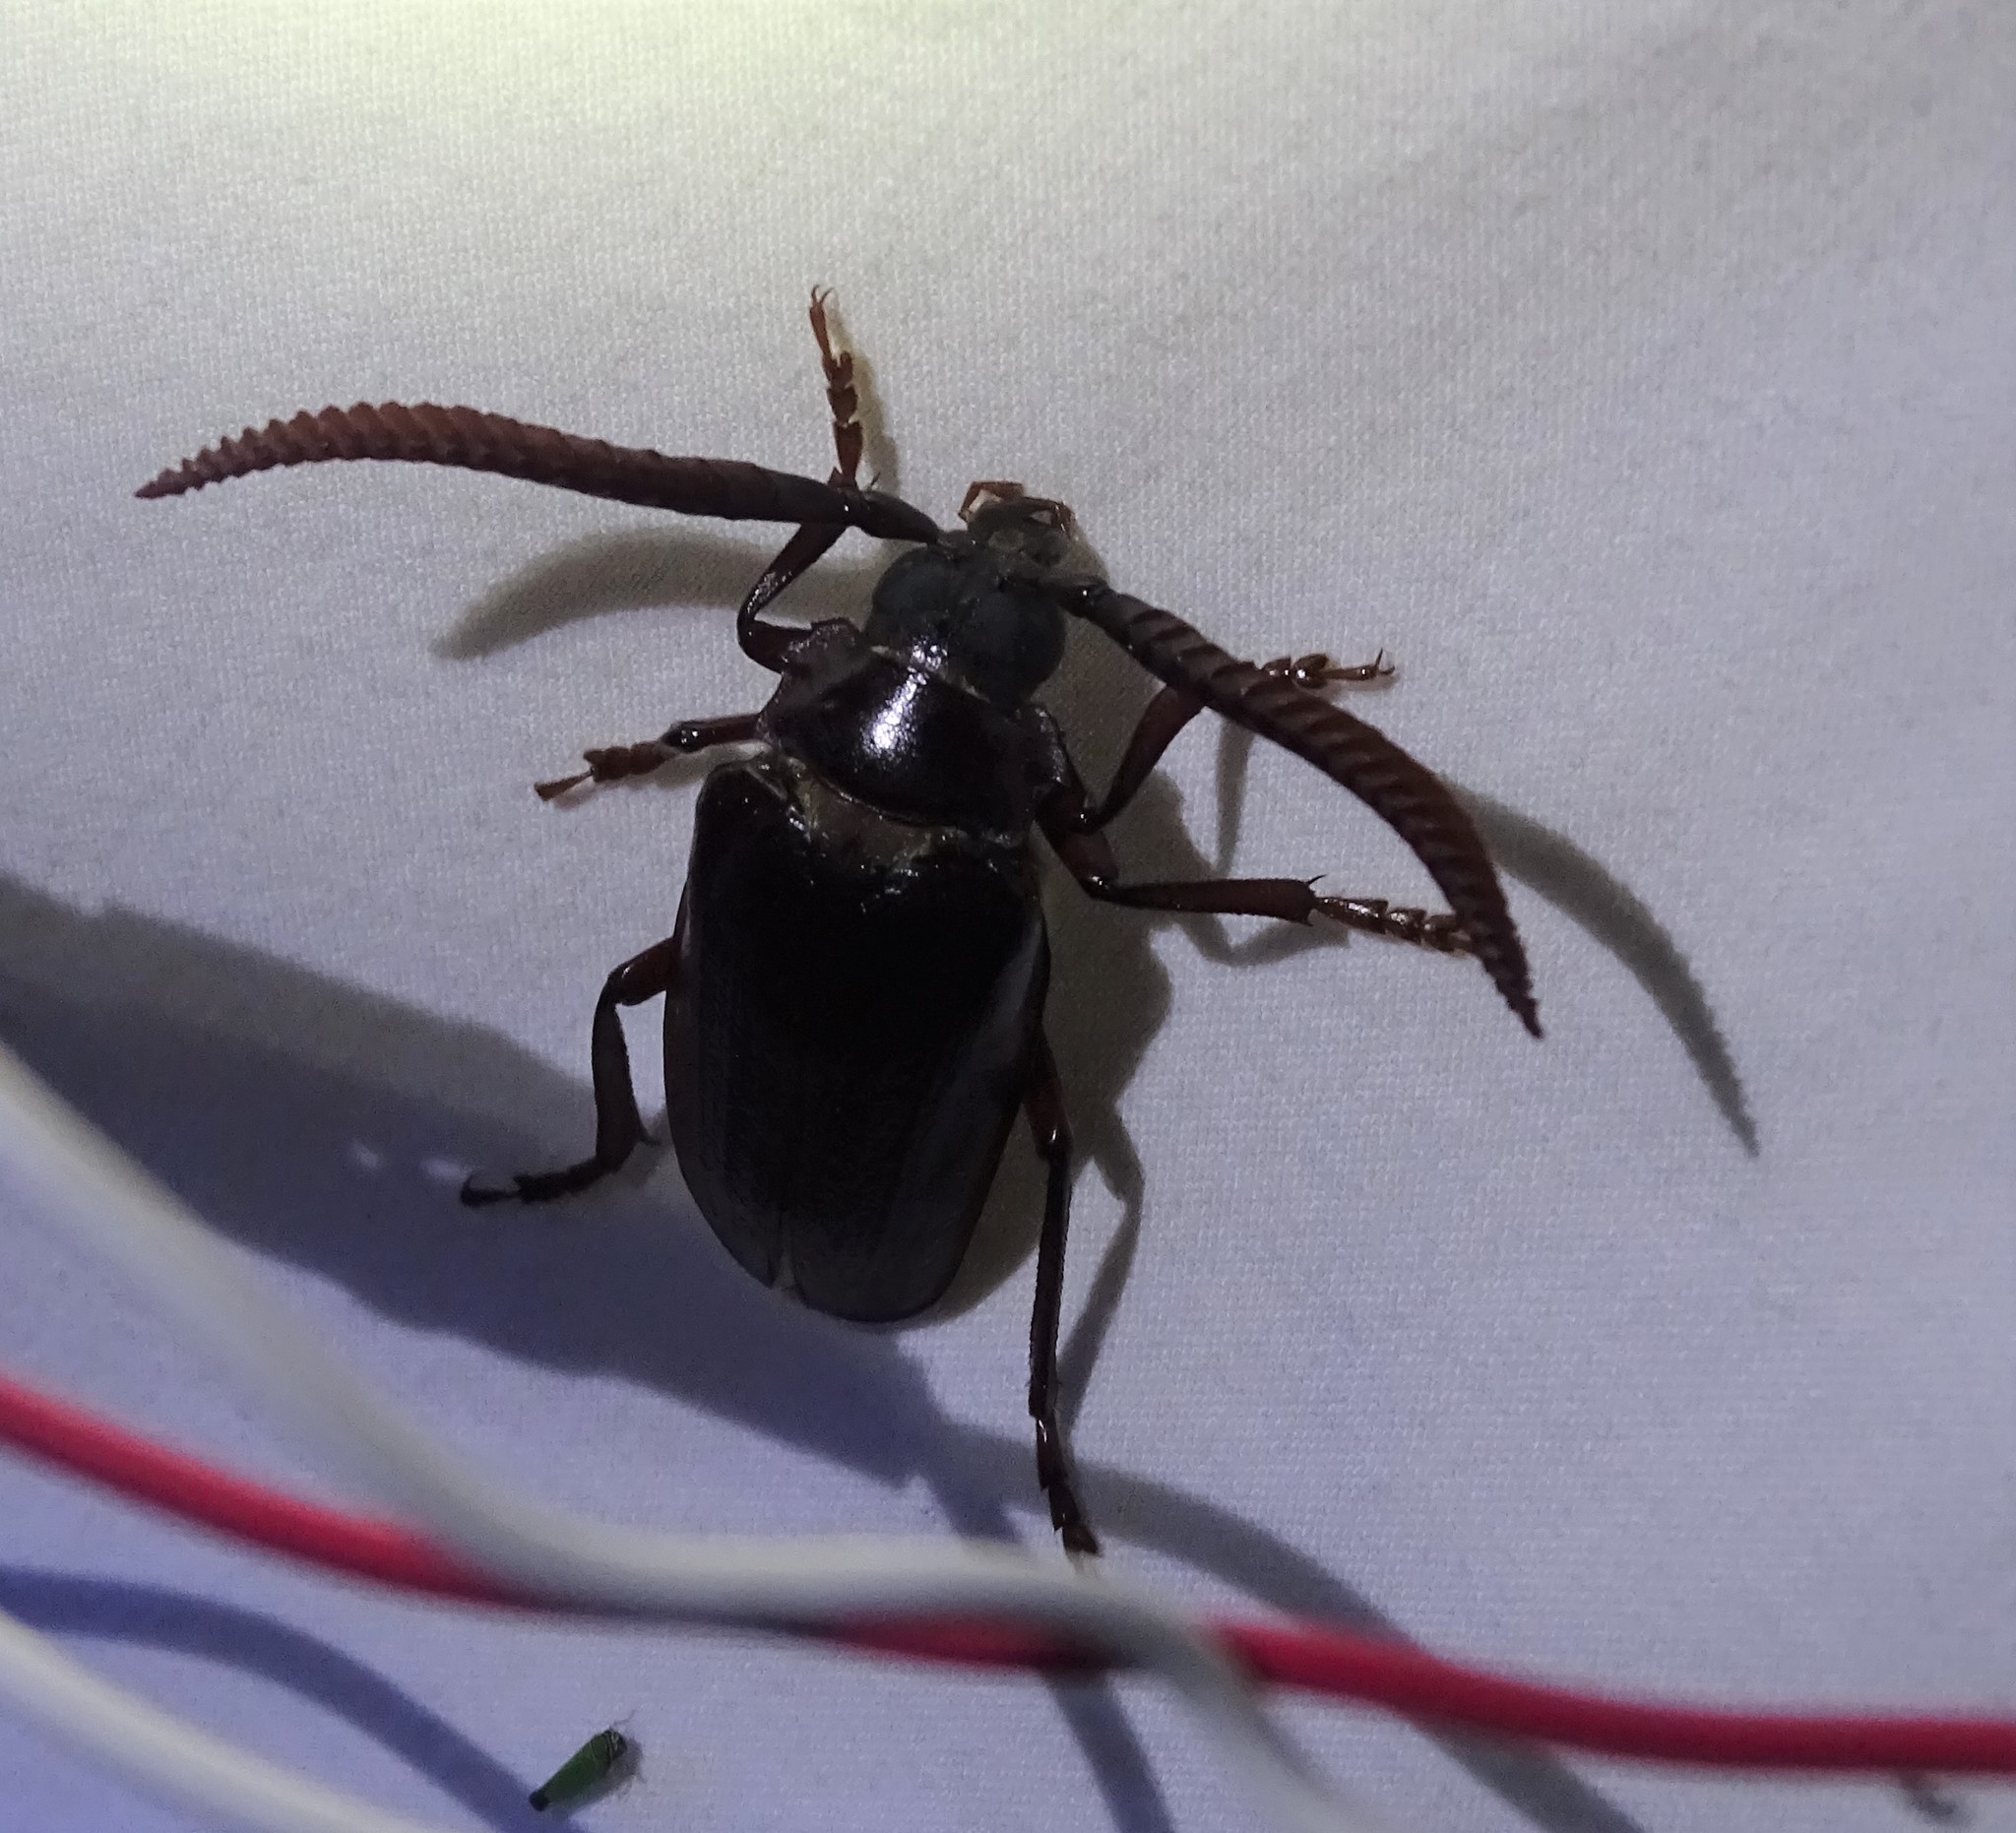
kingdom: Animalia
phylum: Arthropoda
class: Insecta
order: Coleoptera
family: Cerambycidae
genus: Prionus
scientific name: Prionus imbricornis
